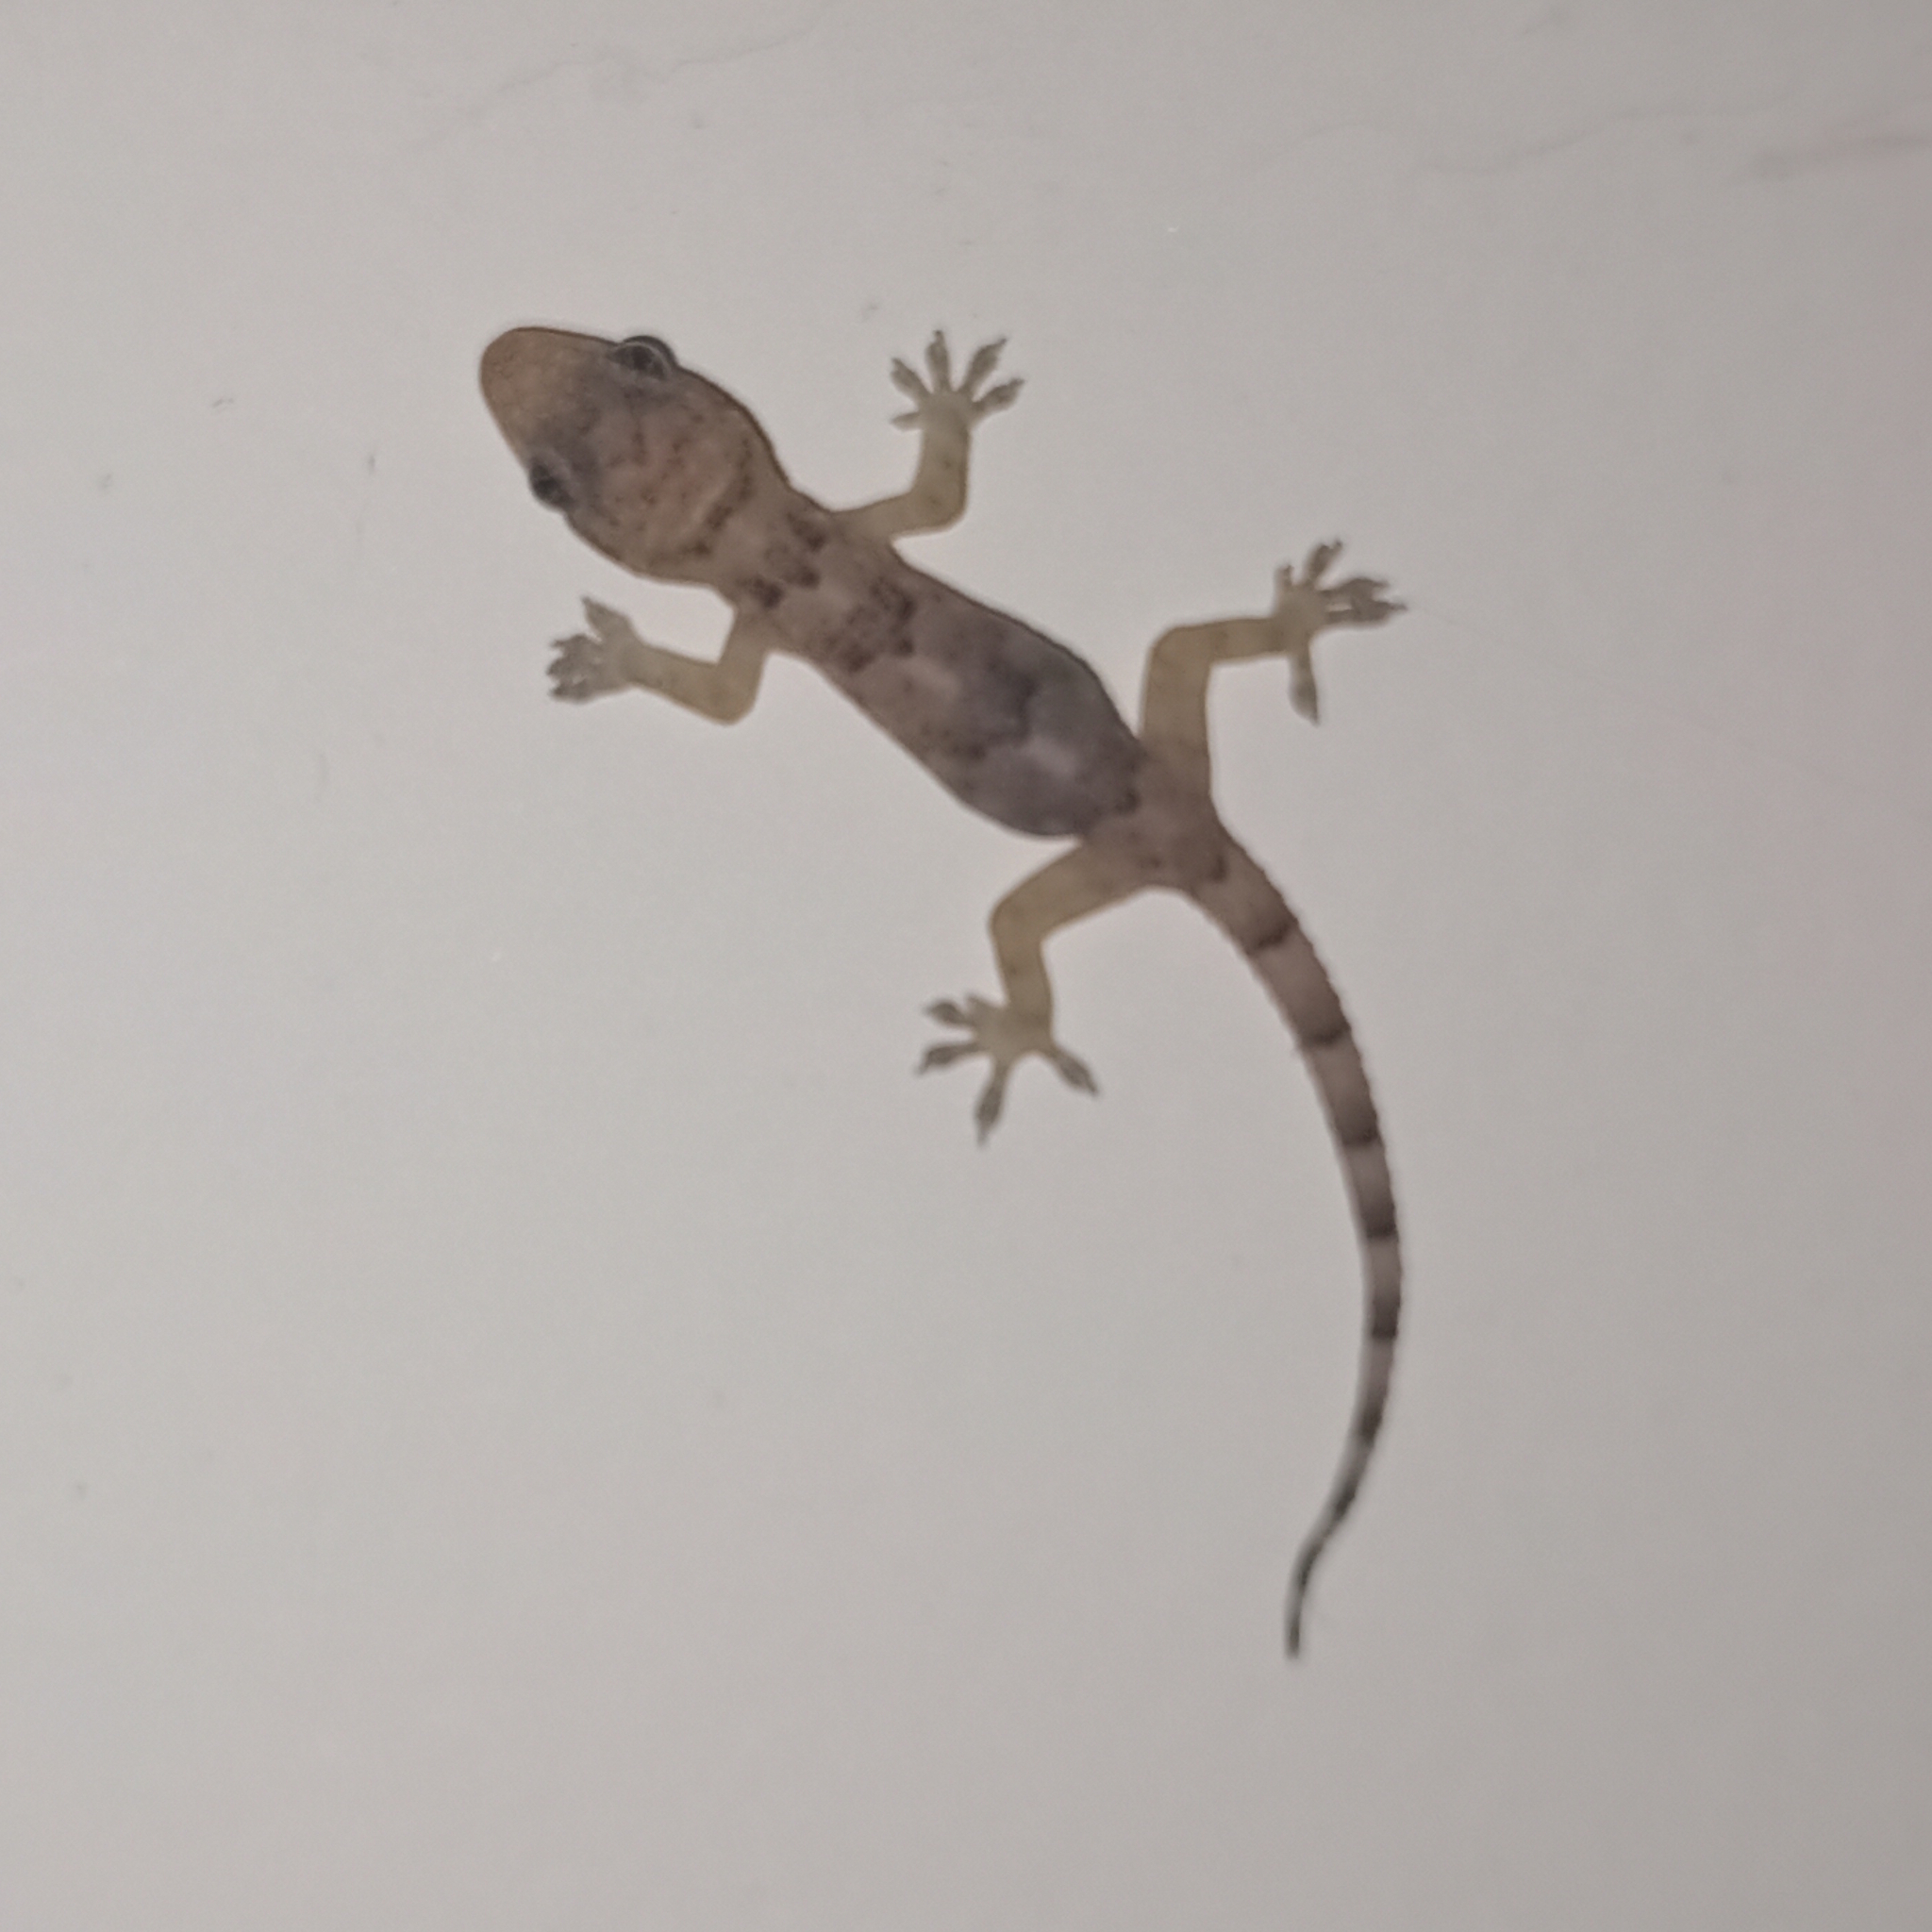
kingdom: Animalia
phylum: Chordata
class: Squamata
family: Gekkonidae
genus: Hemidactylus
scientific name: Hemidactylus mabouia
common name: House gecko
